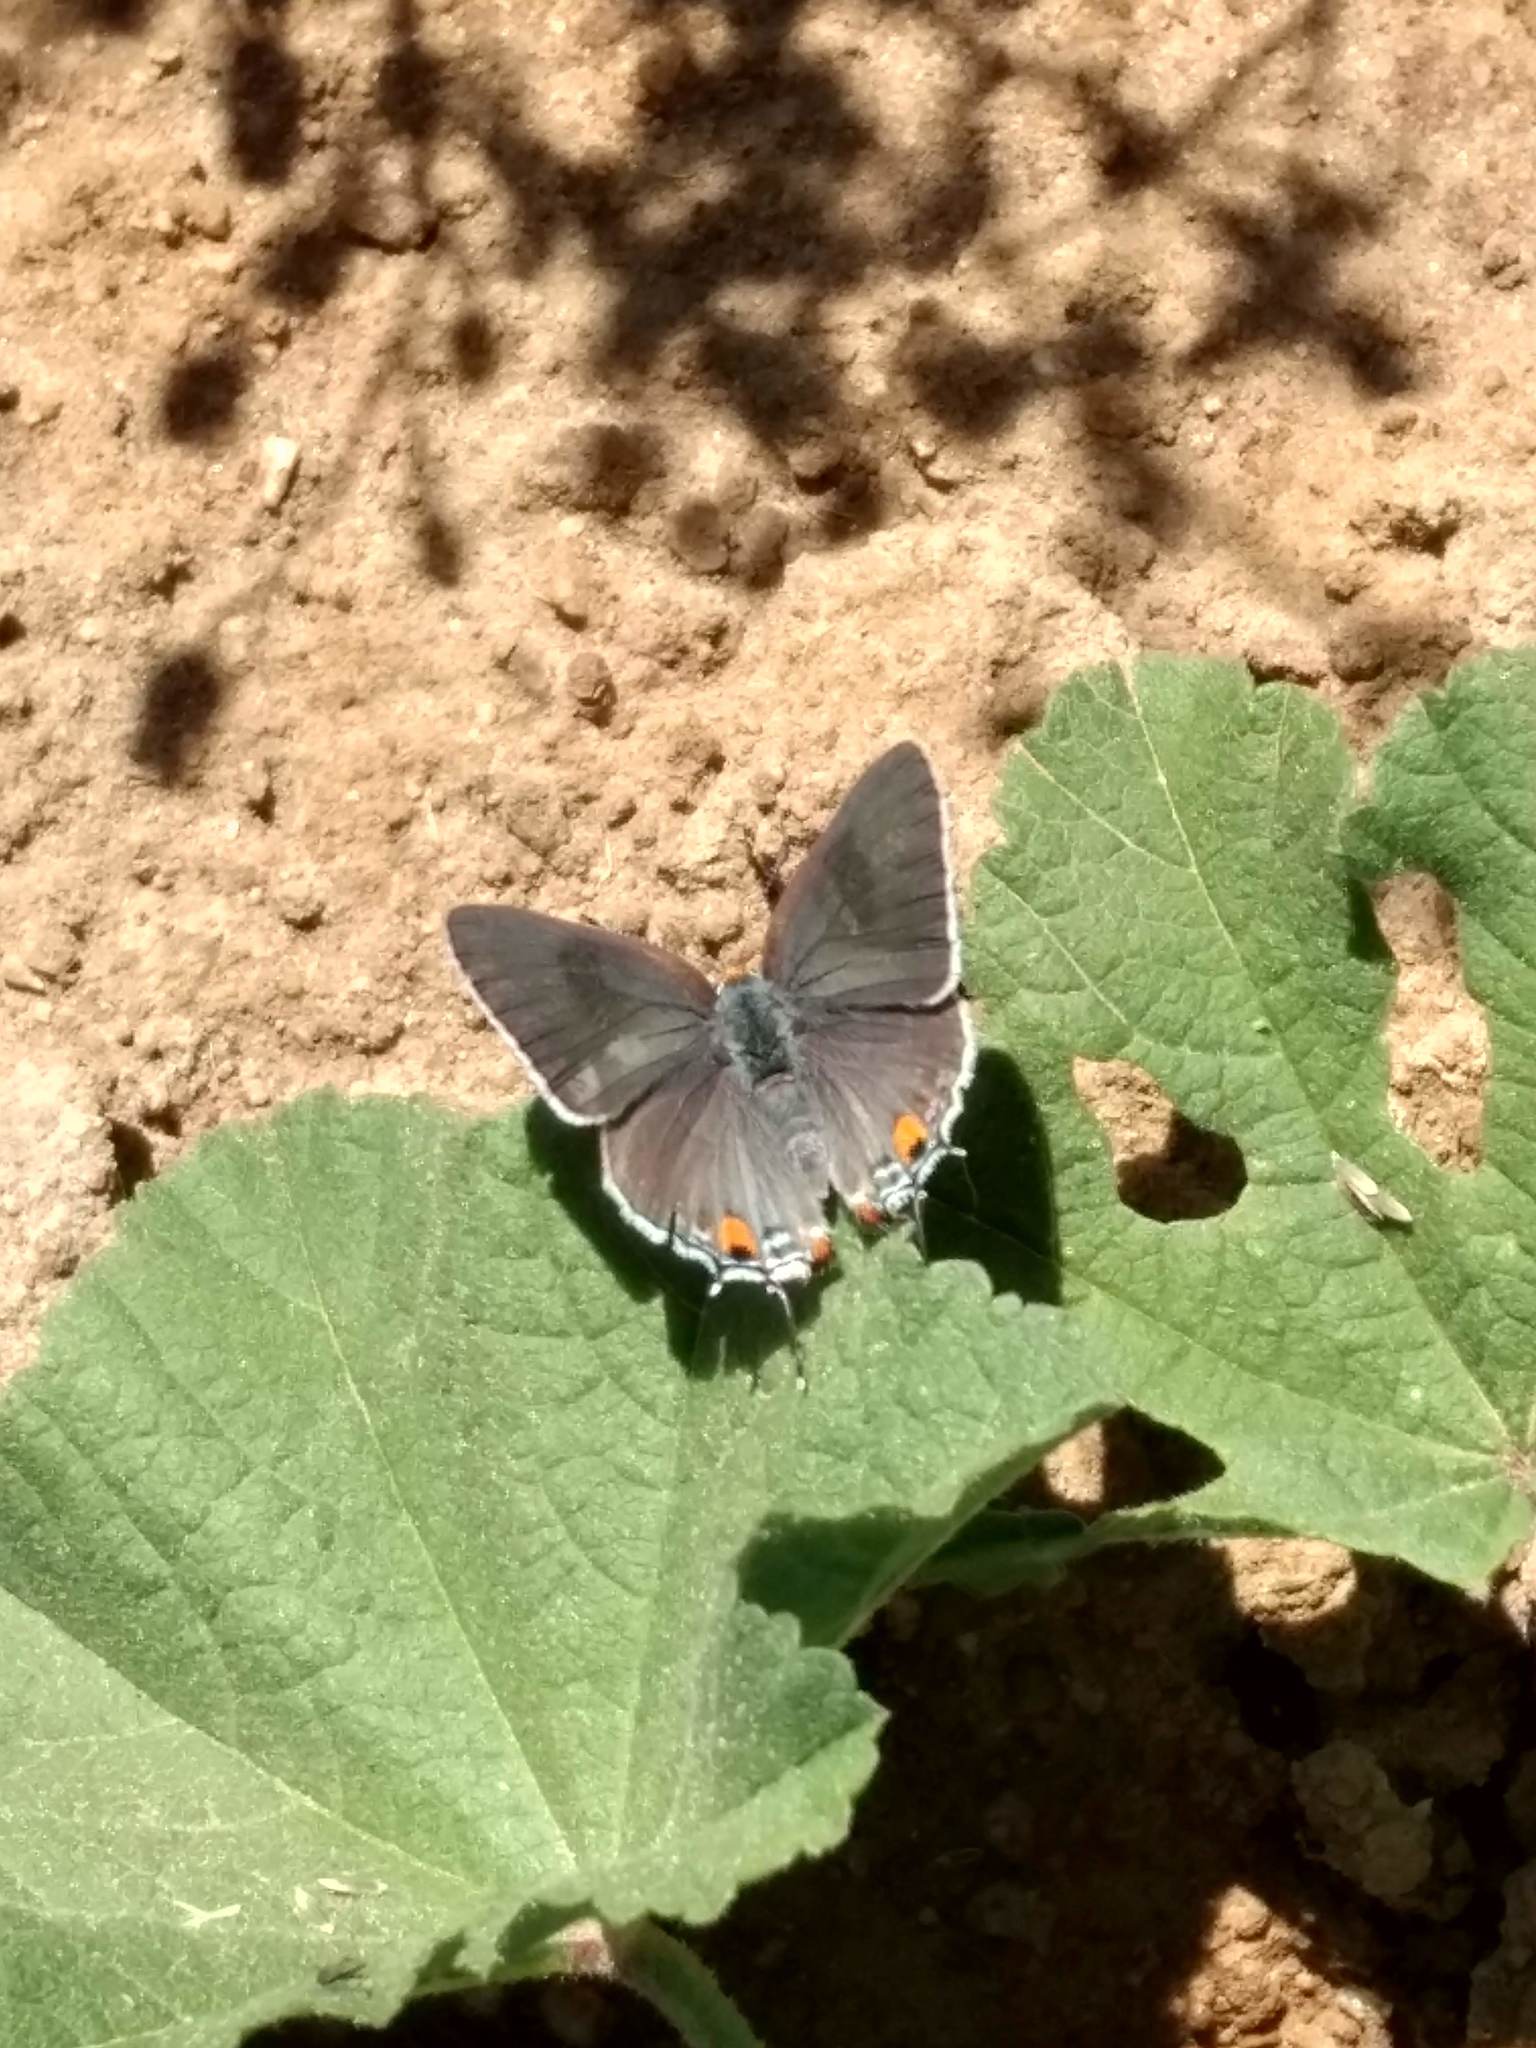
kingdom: Animalia
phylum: Arthropoda
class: Insecta
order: Lepidoptera
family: Lycaenidae
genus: Strymon
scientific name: Strymon melinus
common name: Gray hairstreak
